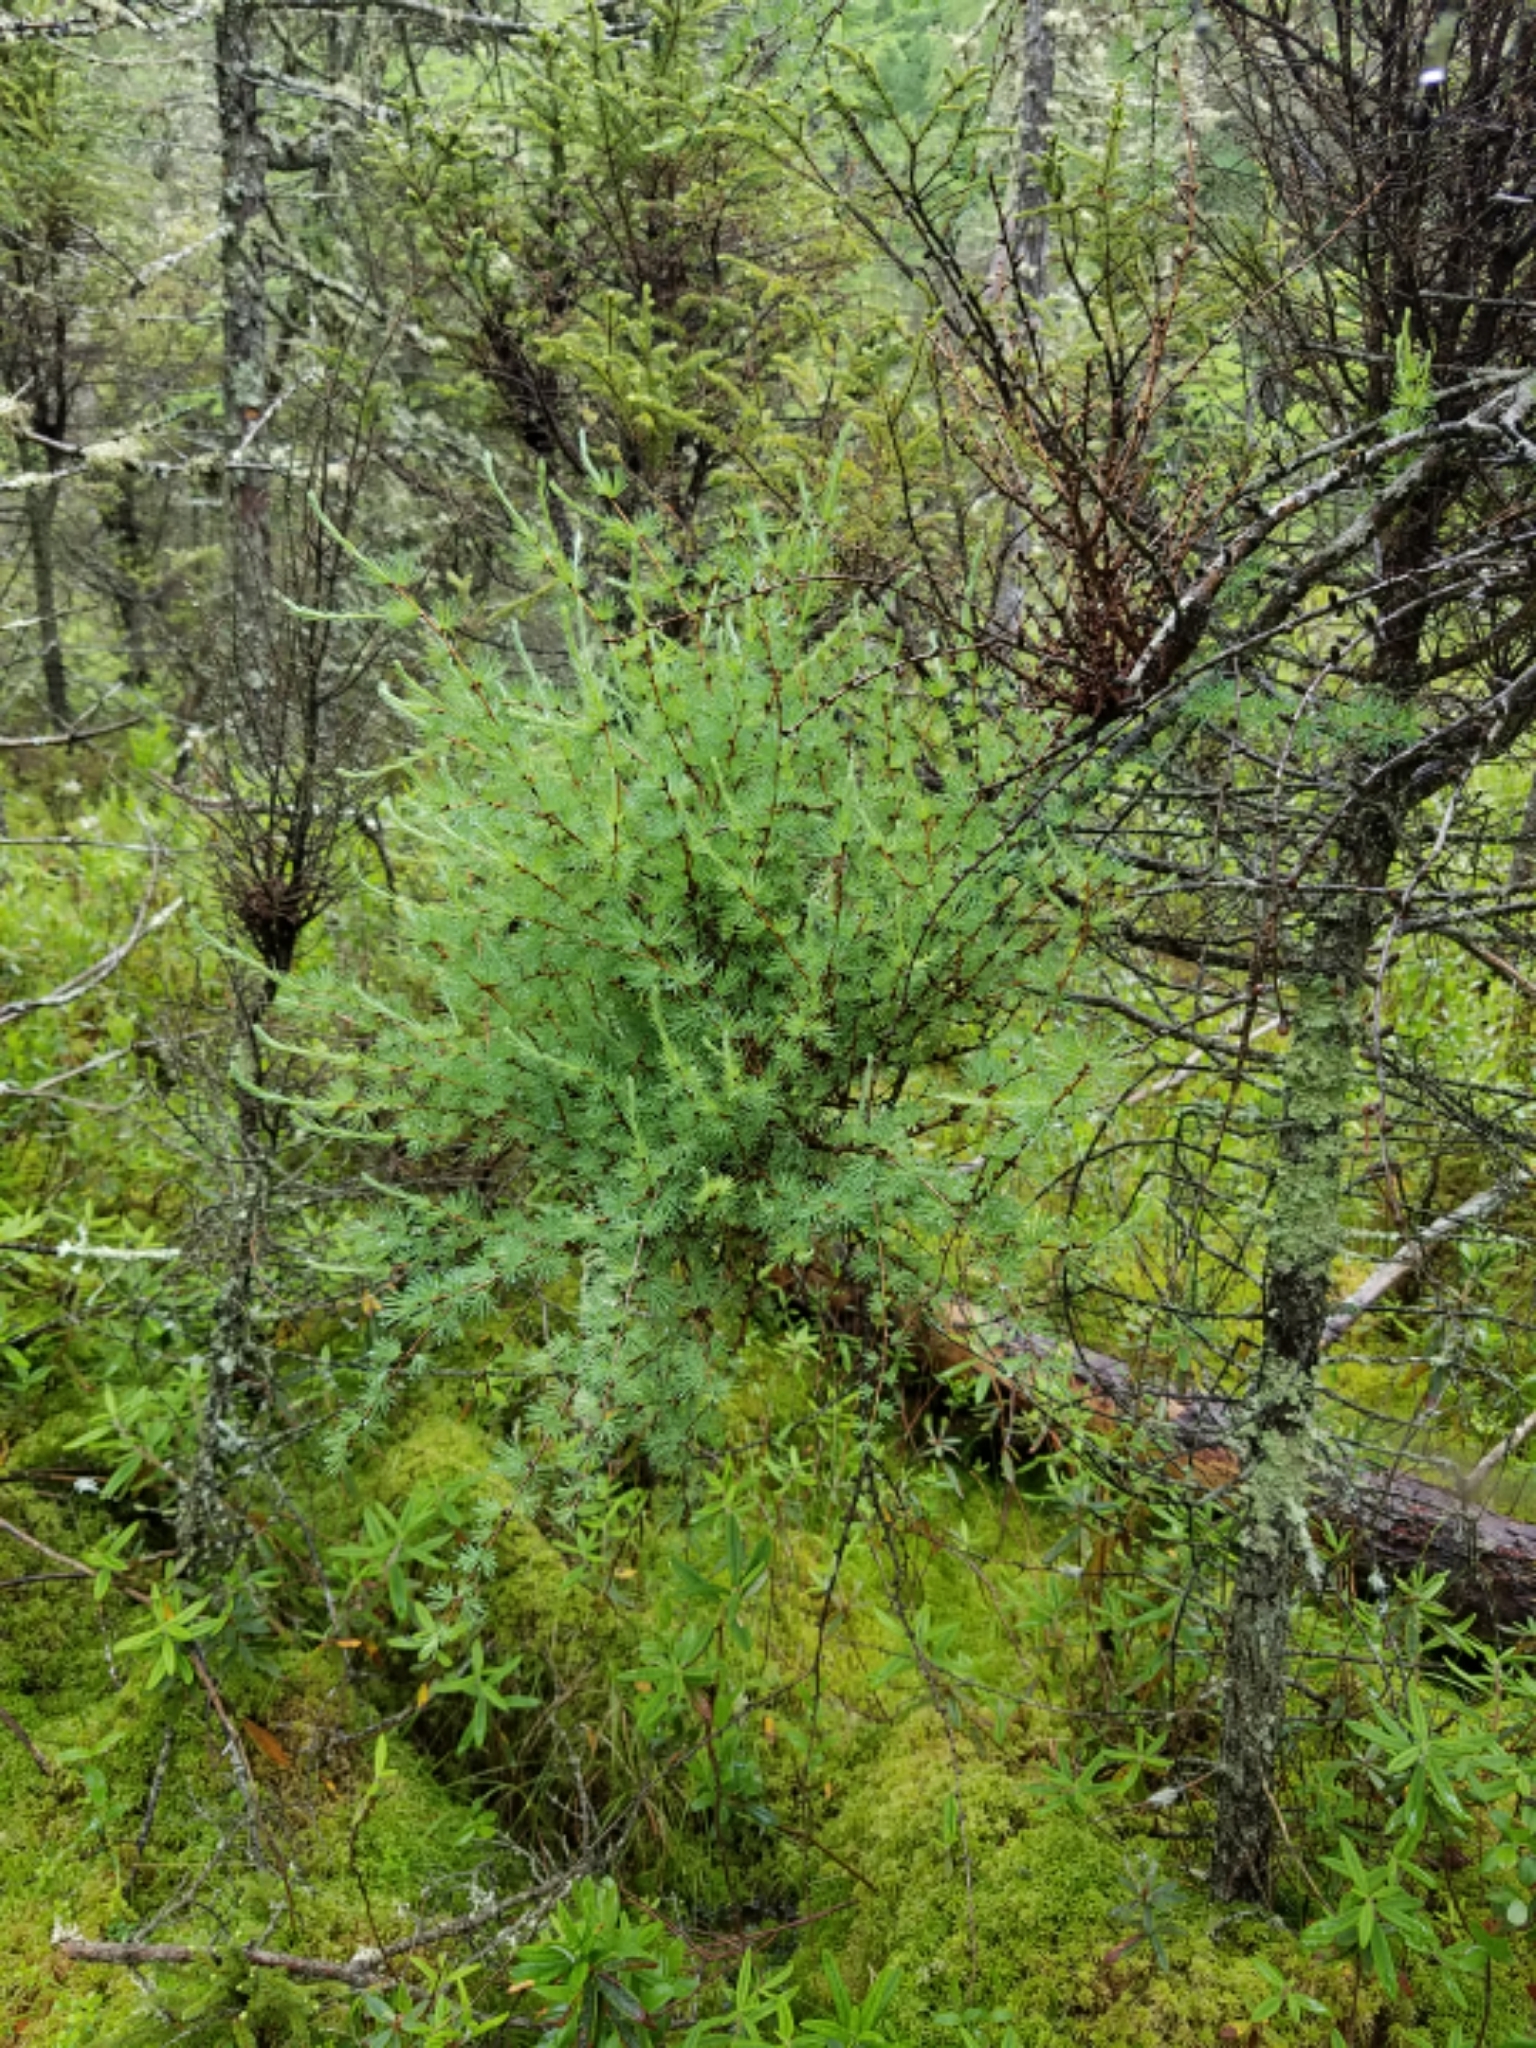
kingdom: Plantae
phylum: Tracheophyta
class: Pinopsida
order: Pinales
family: Pinaceae
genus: Larix
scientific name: Larix laricina
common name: American larch
